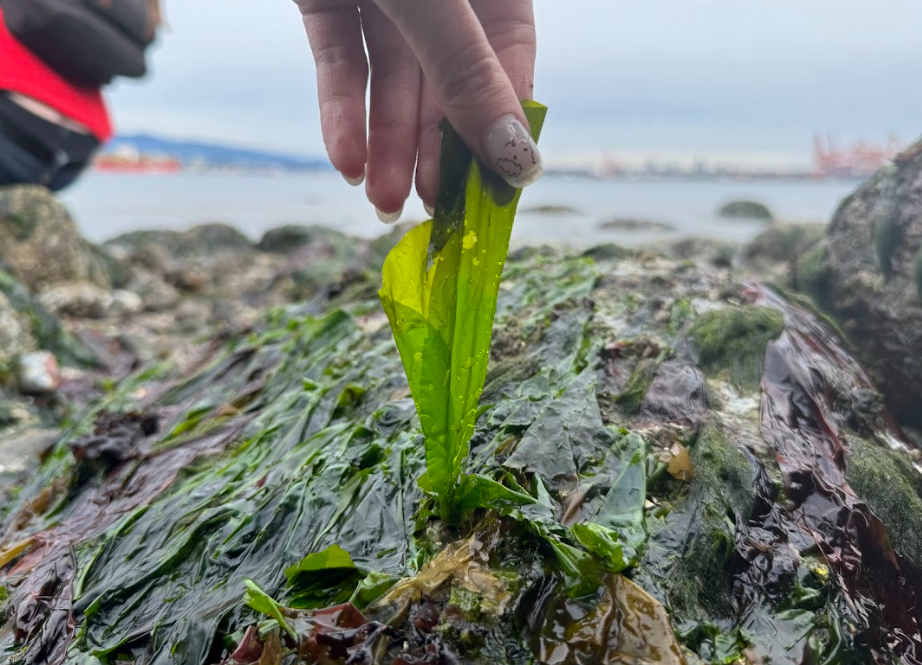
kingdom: Plantae
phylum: Chlorophyta
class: Ulvophyceae
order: Ulvales
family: Ulvaceae
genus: Ulva
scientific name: Ulva fenestrata
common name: Sea lettuce
